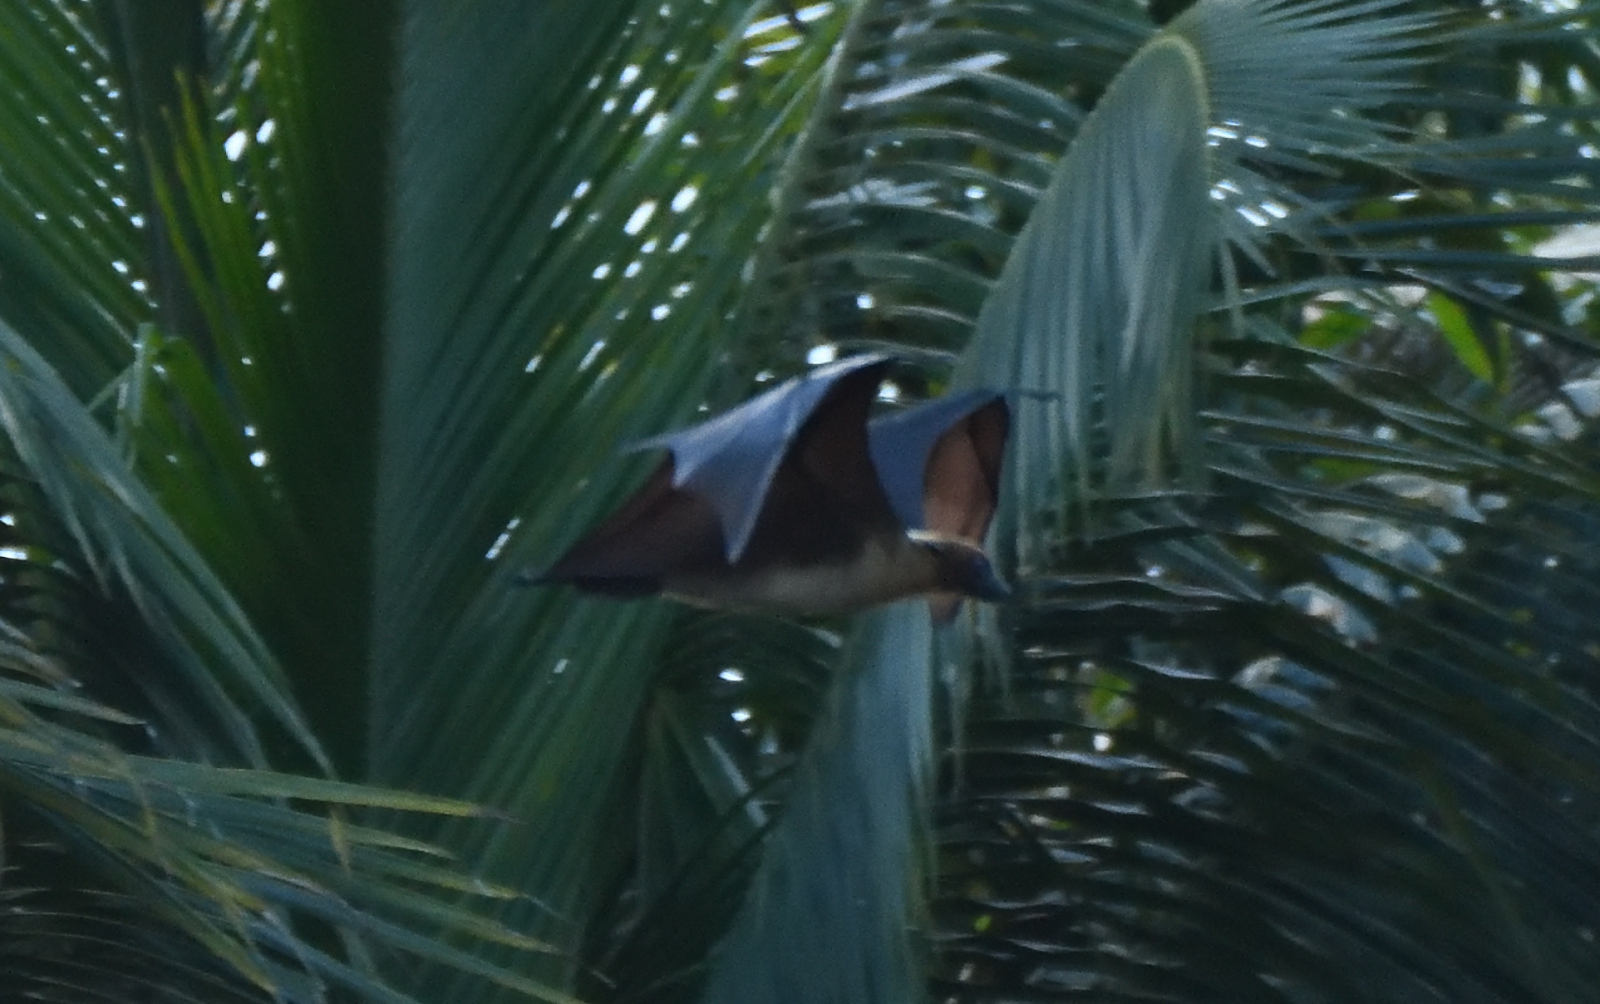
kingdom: Animalia
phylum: Chordata
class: Mammalia
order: Chiroptera
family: Pteropodidae
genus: Pteropus
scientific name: Pteropus vampyrus
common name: Large flying fox
